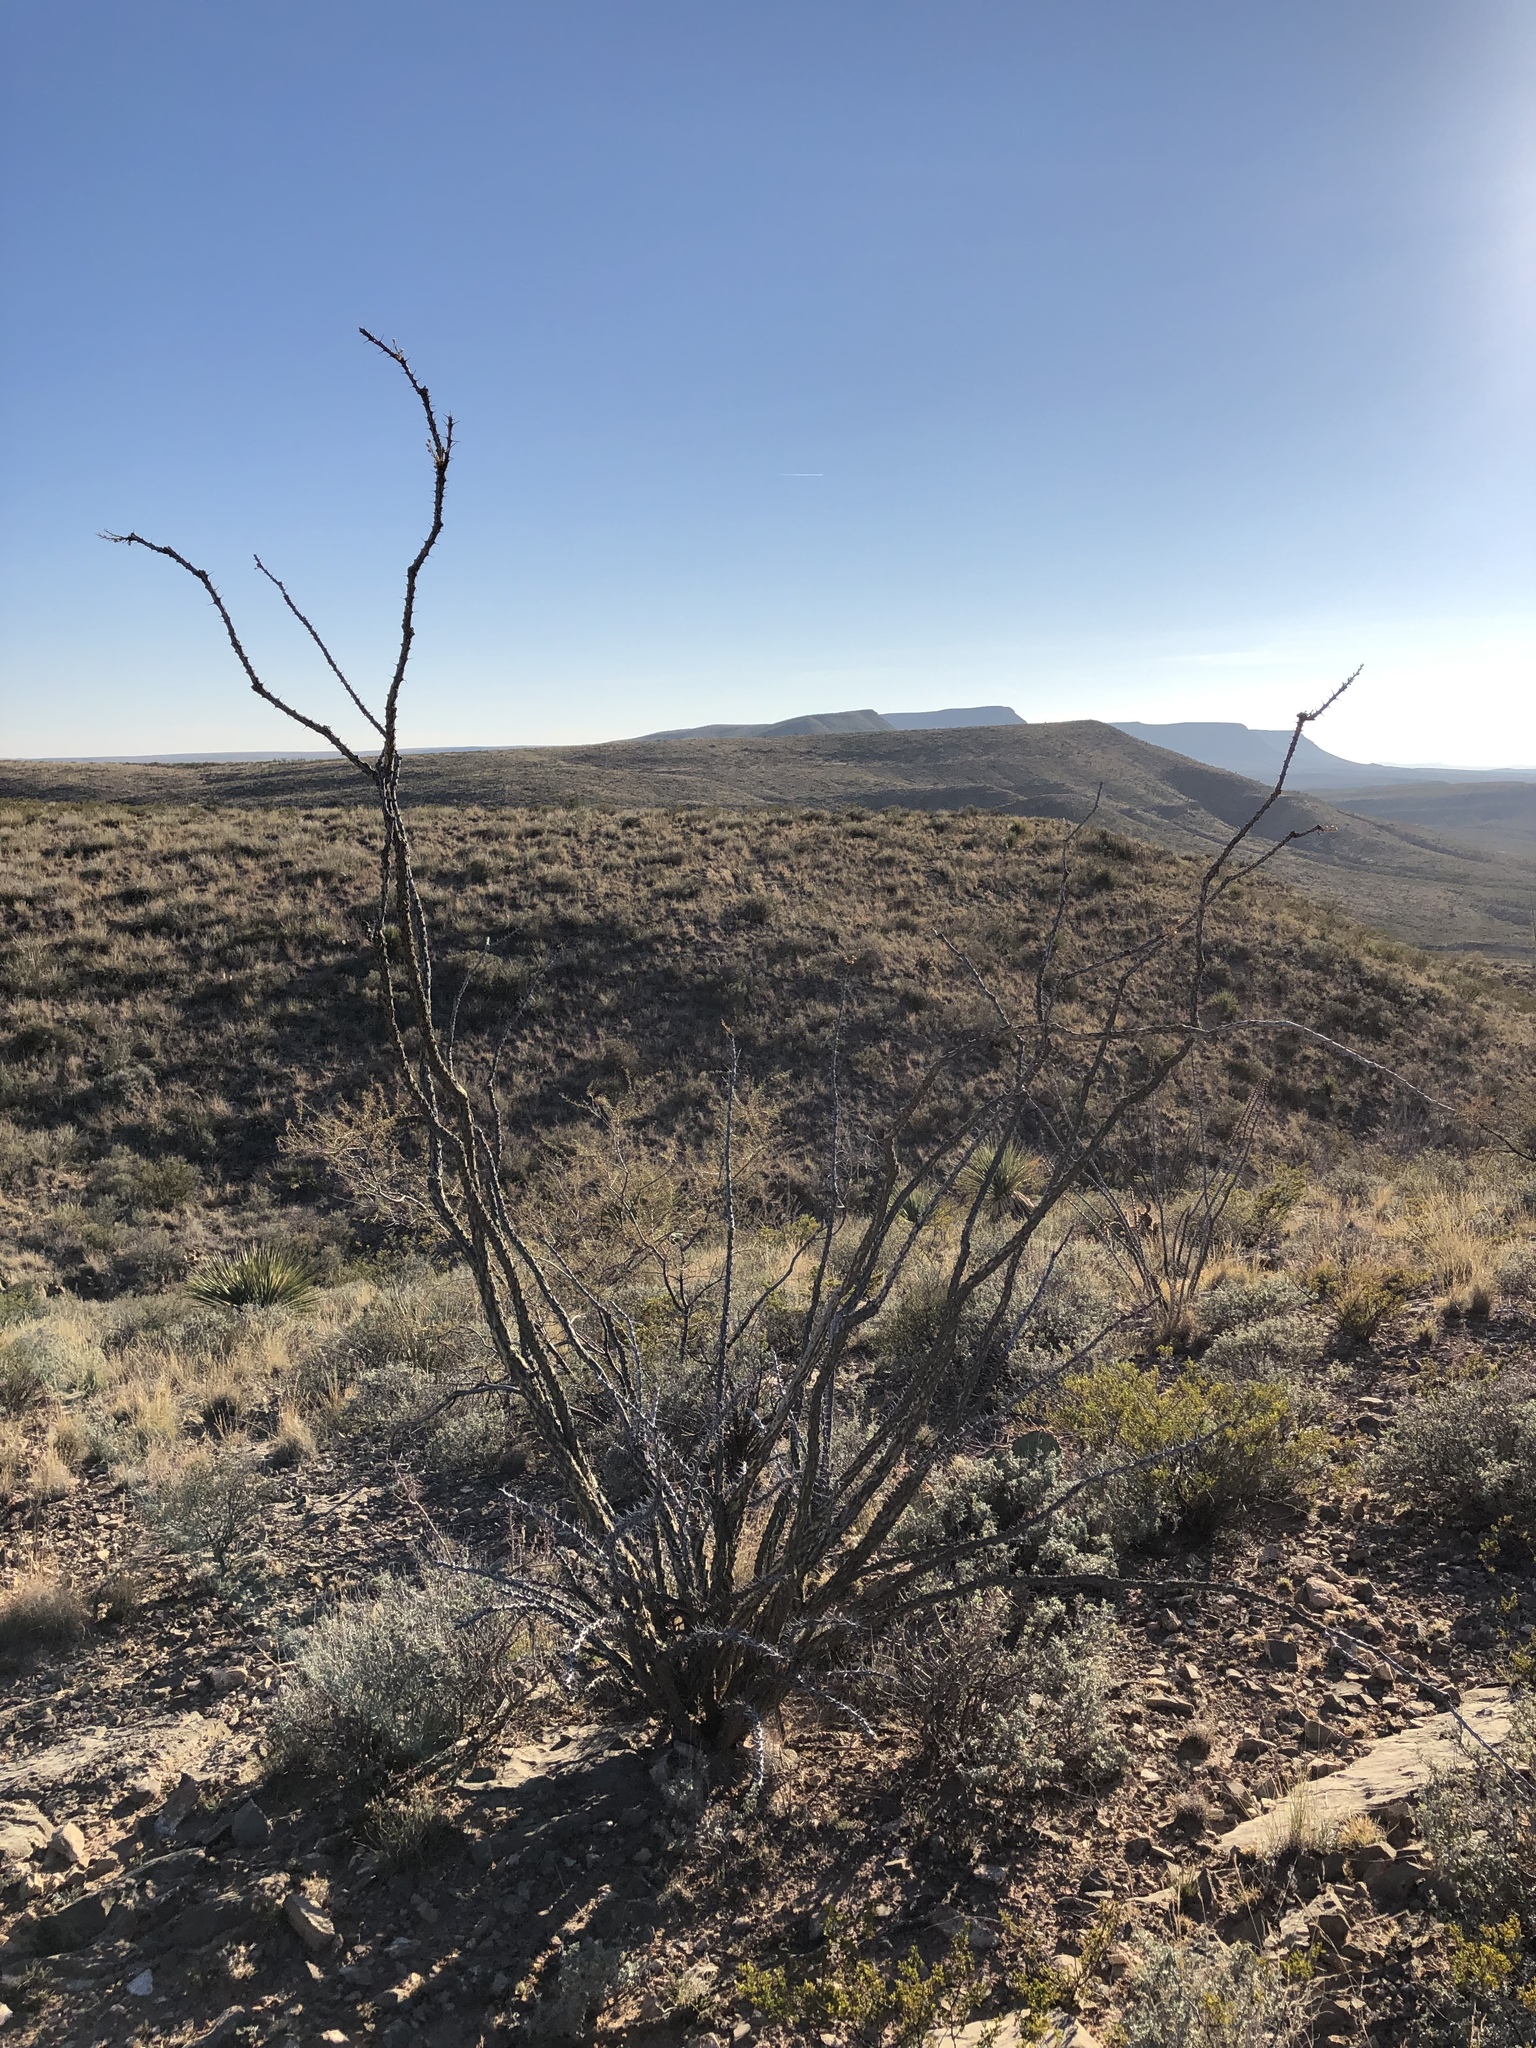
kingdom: Plantae
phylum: Tracheophyta
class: Magnoliopsida
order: Ericales
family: Fouquieriaceae
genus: Fouquieria
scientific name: Fouquieria splendens
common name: Vine-cactus
